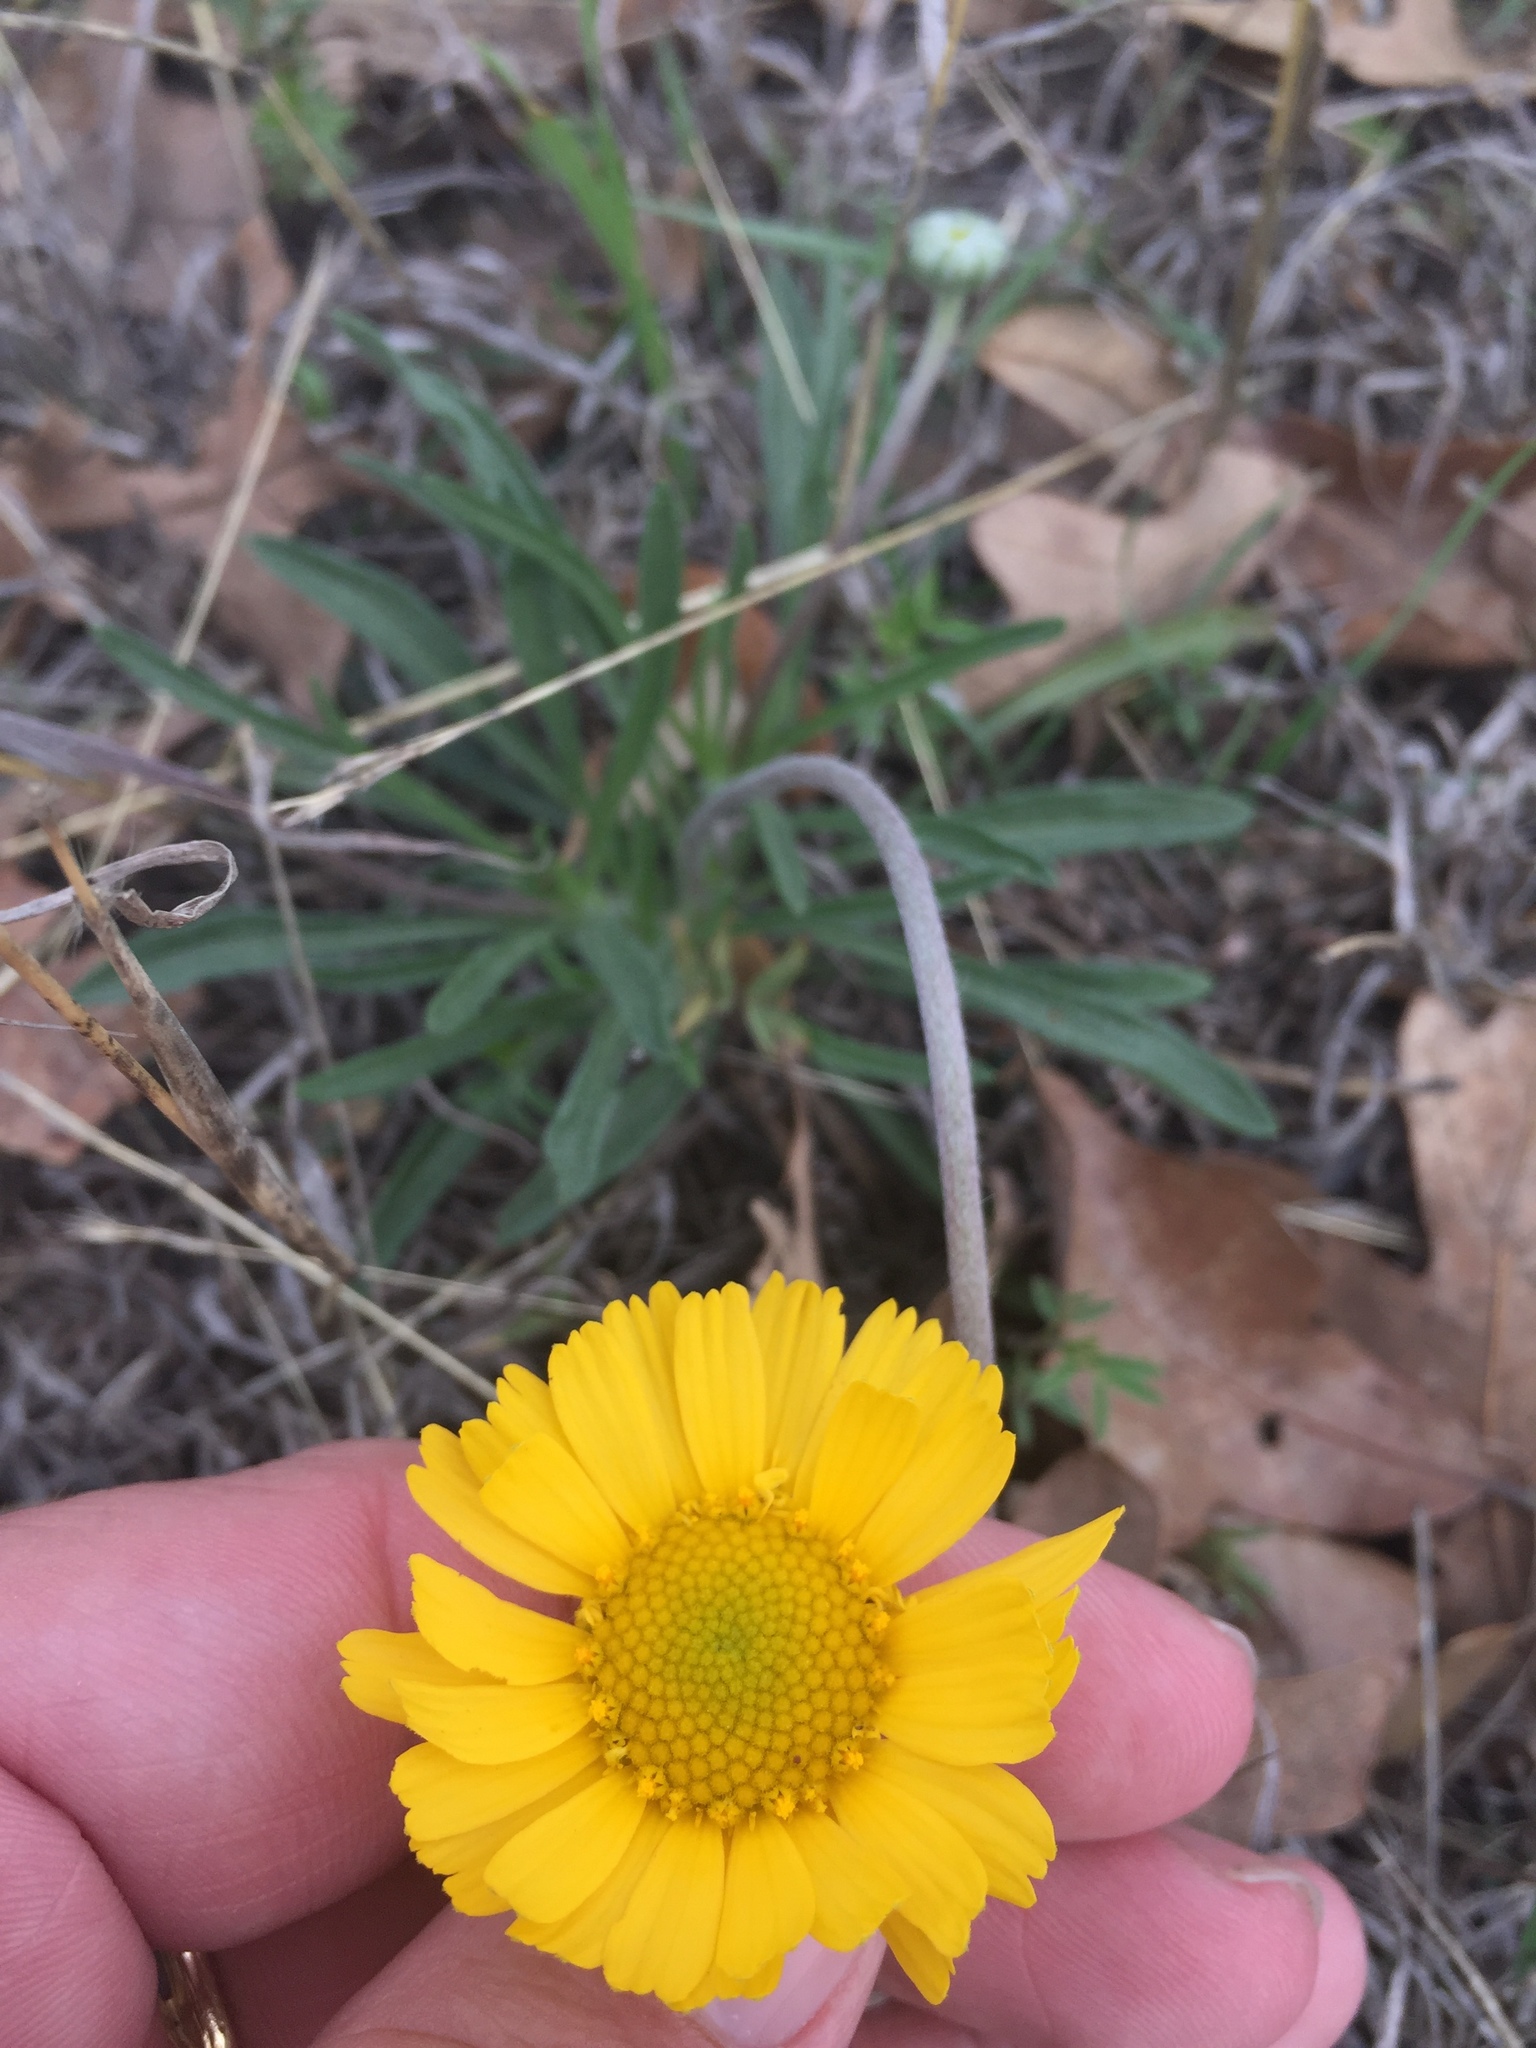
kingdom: Plantae
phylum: Tracheophyta
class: Magnoliopsida
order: Asterales
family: Asteraceae
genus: Tetraneuris
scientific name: Tetraneuris scaposa
